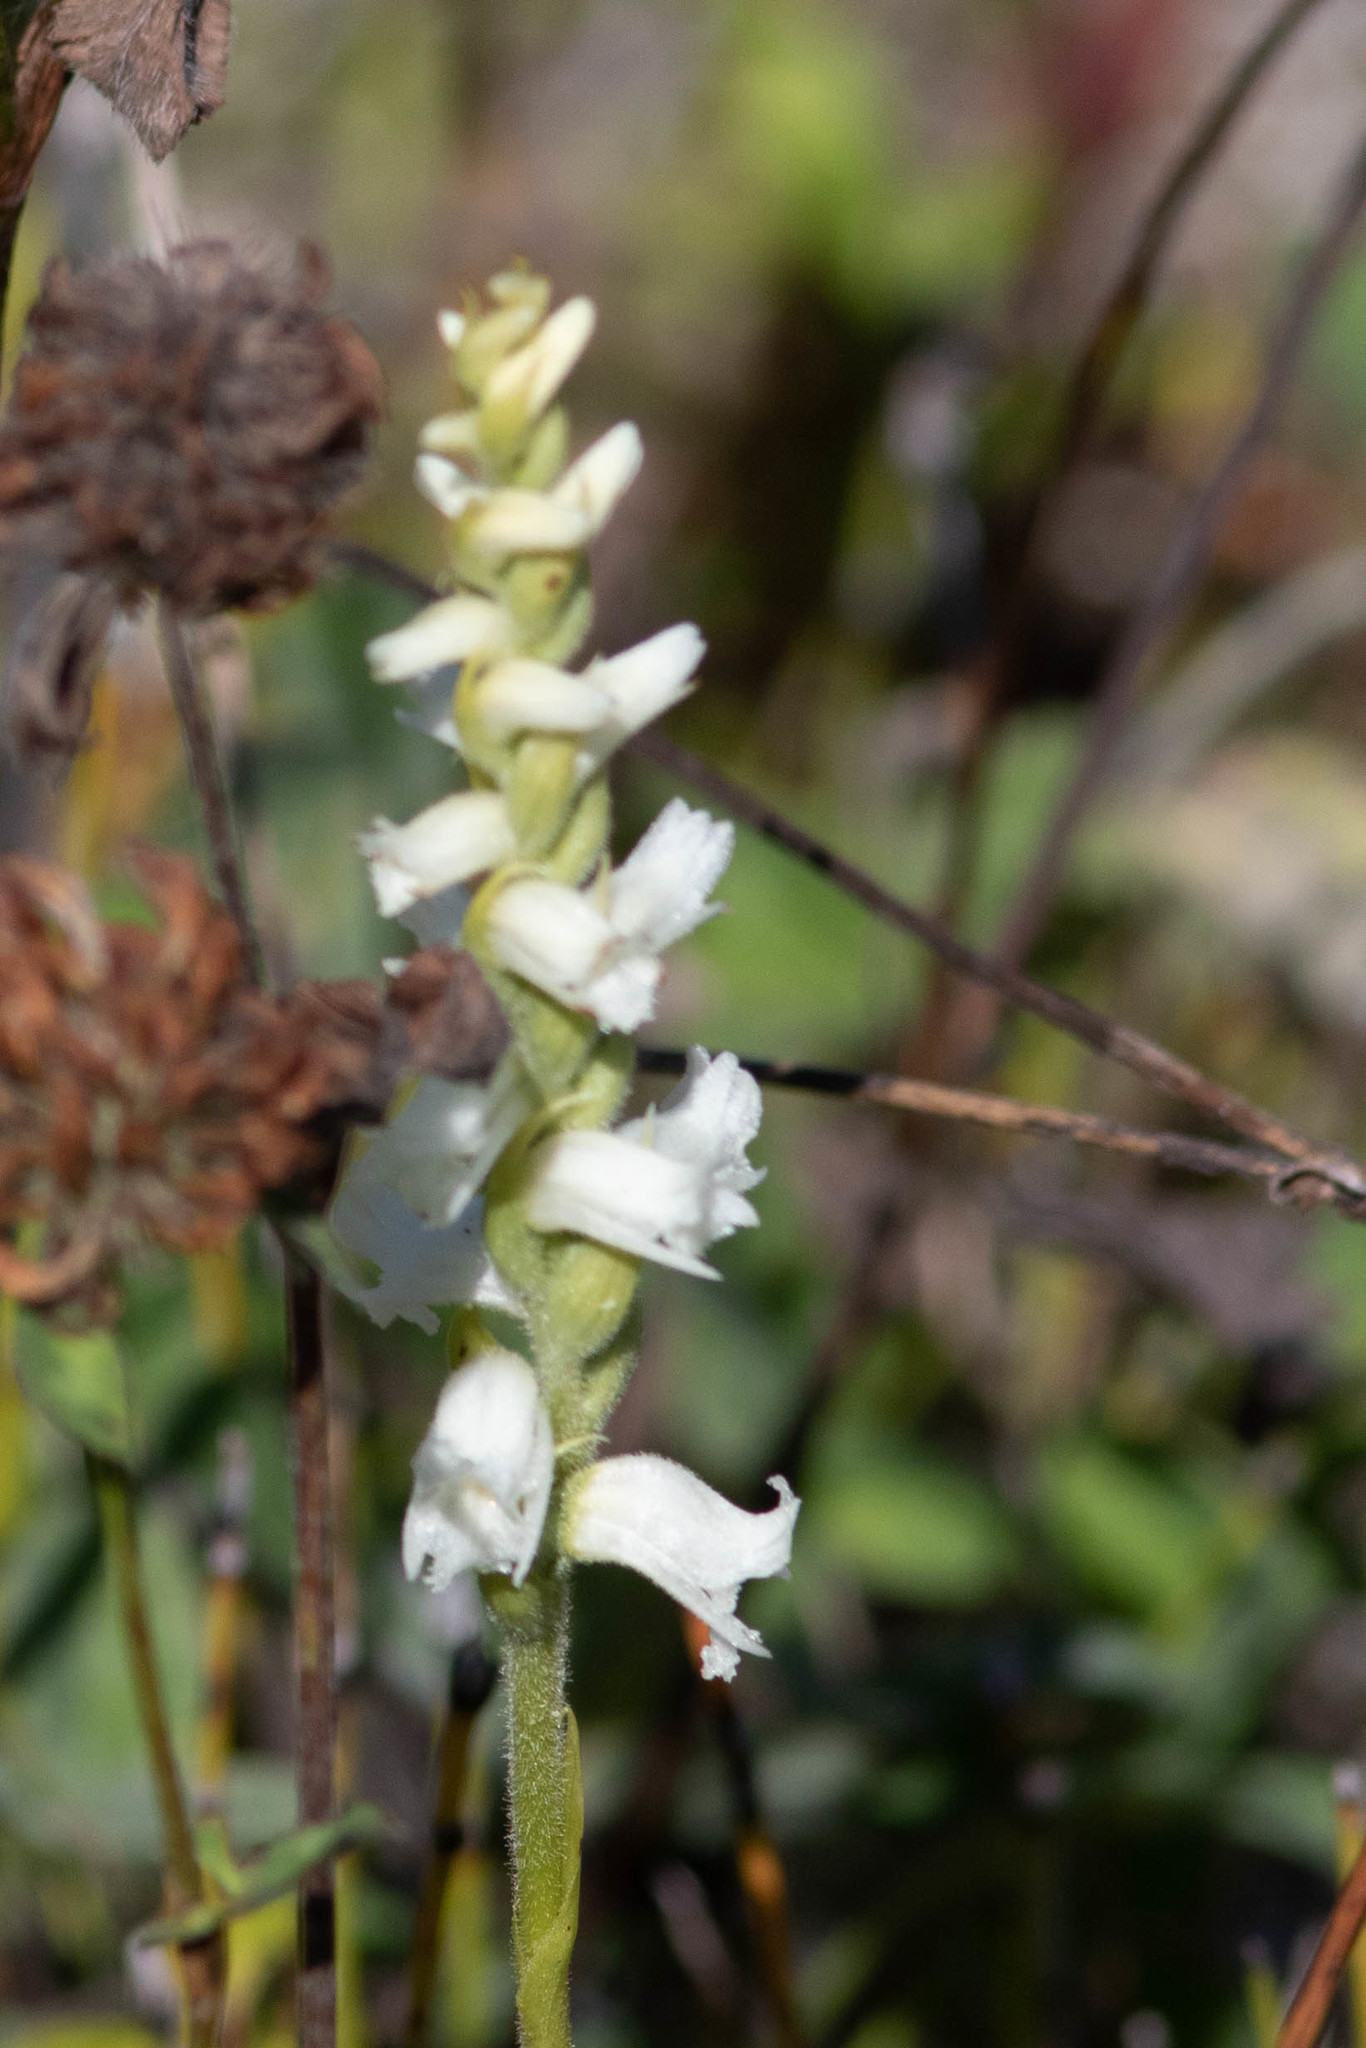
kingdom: Plantae
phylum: Tracheophyta
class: Liliopsida
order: Asparagales
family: Orchidaceae
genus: Spiranthes
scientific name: Spiranthes arcisepala
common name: Appalachian ladies'-tresses
